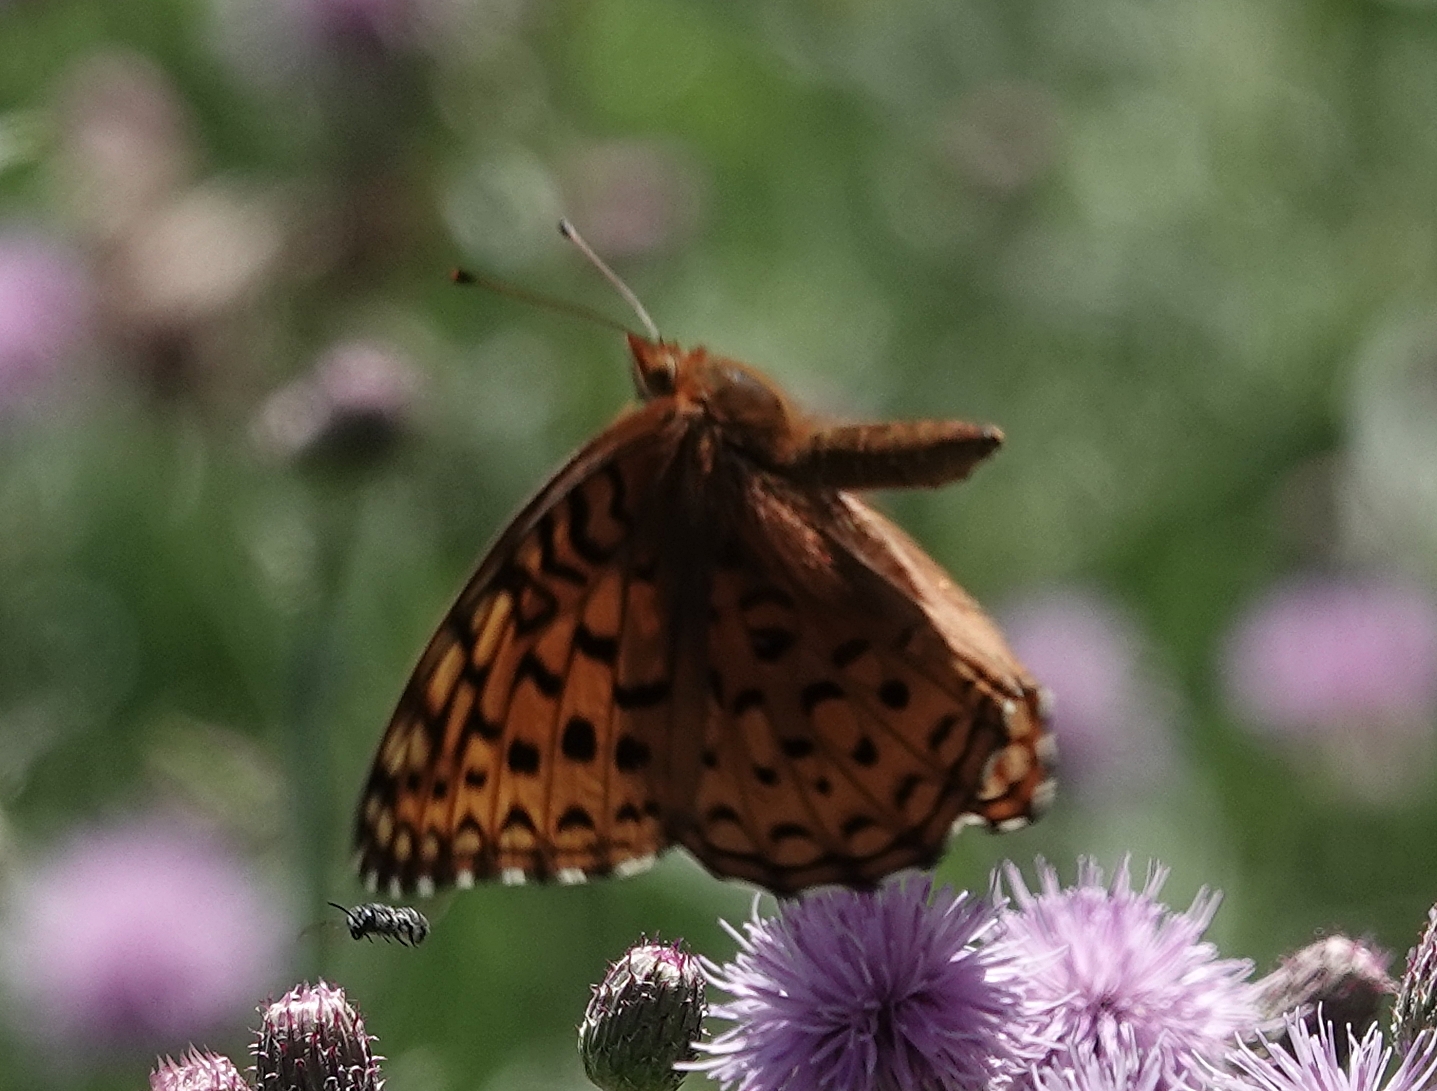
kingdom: Animalia
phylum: Arthropoda
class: Insecta
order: Lepidoptera
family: Nymphalidae
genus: Speyeria
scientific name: Speyeria aphrodite
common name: Aphrodite friitllary
